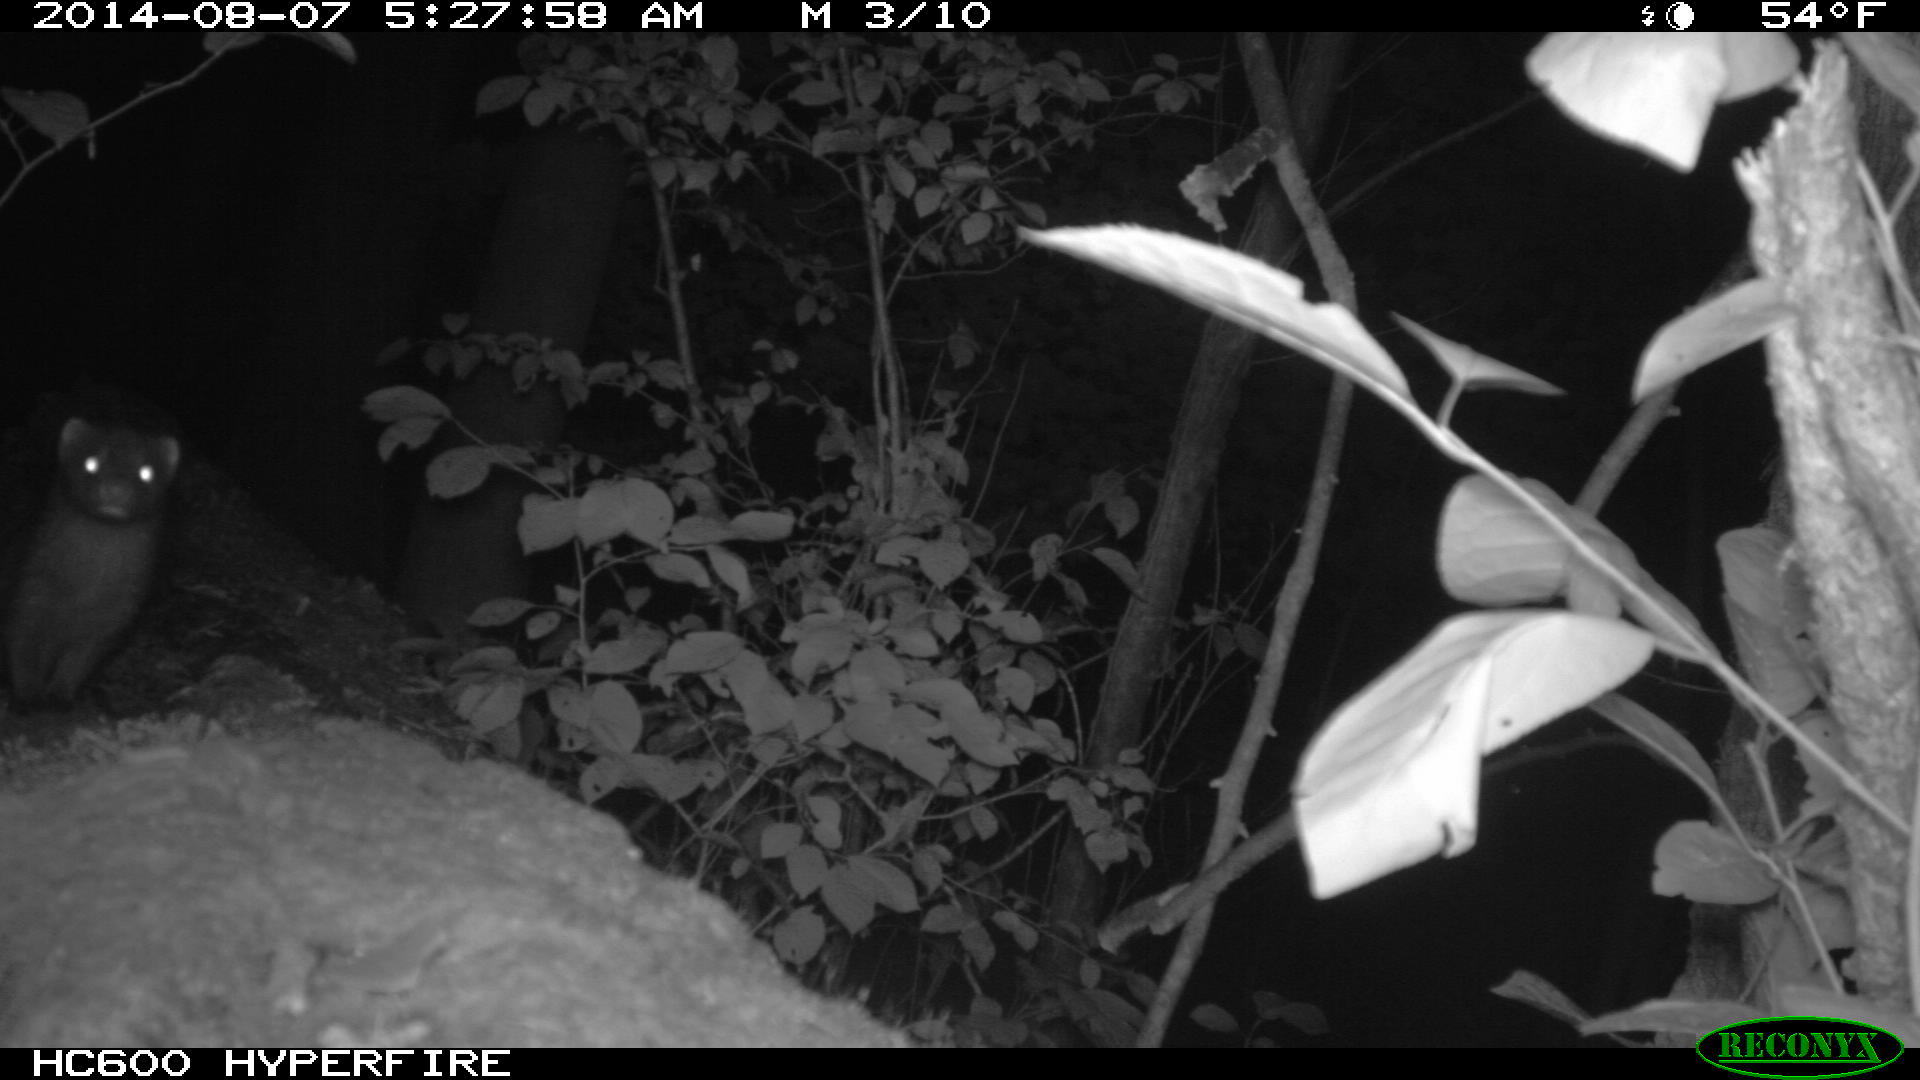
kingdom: Animalia
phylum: Chordata
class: Mammalia
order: Carnivora
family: Mustelidae
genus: Mustela
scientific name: Mustela
